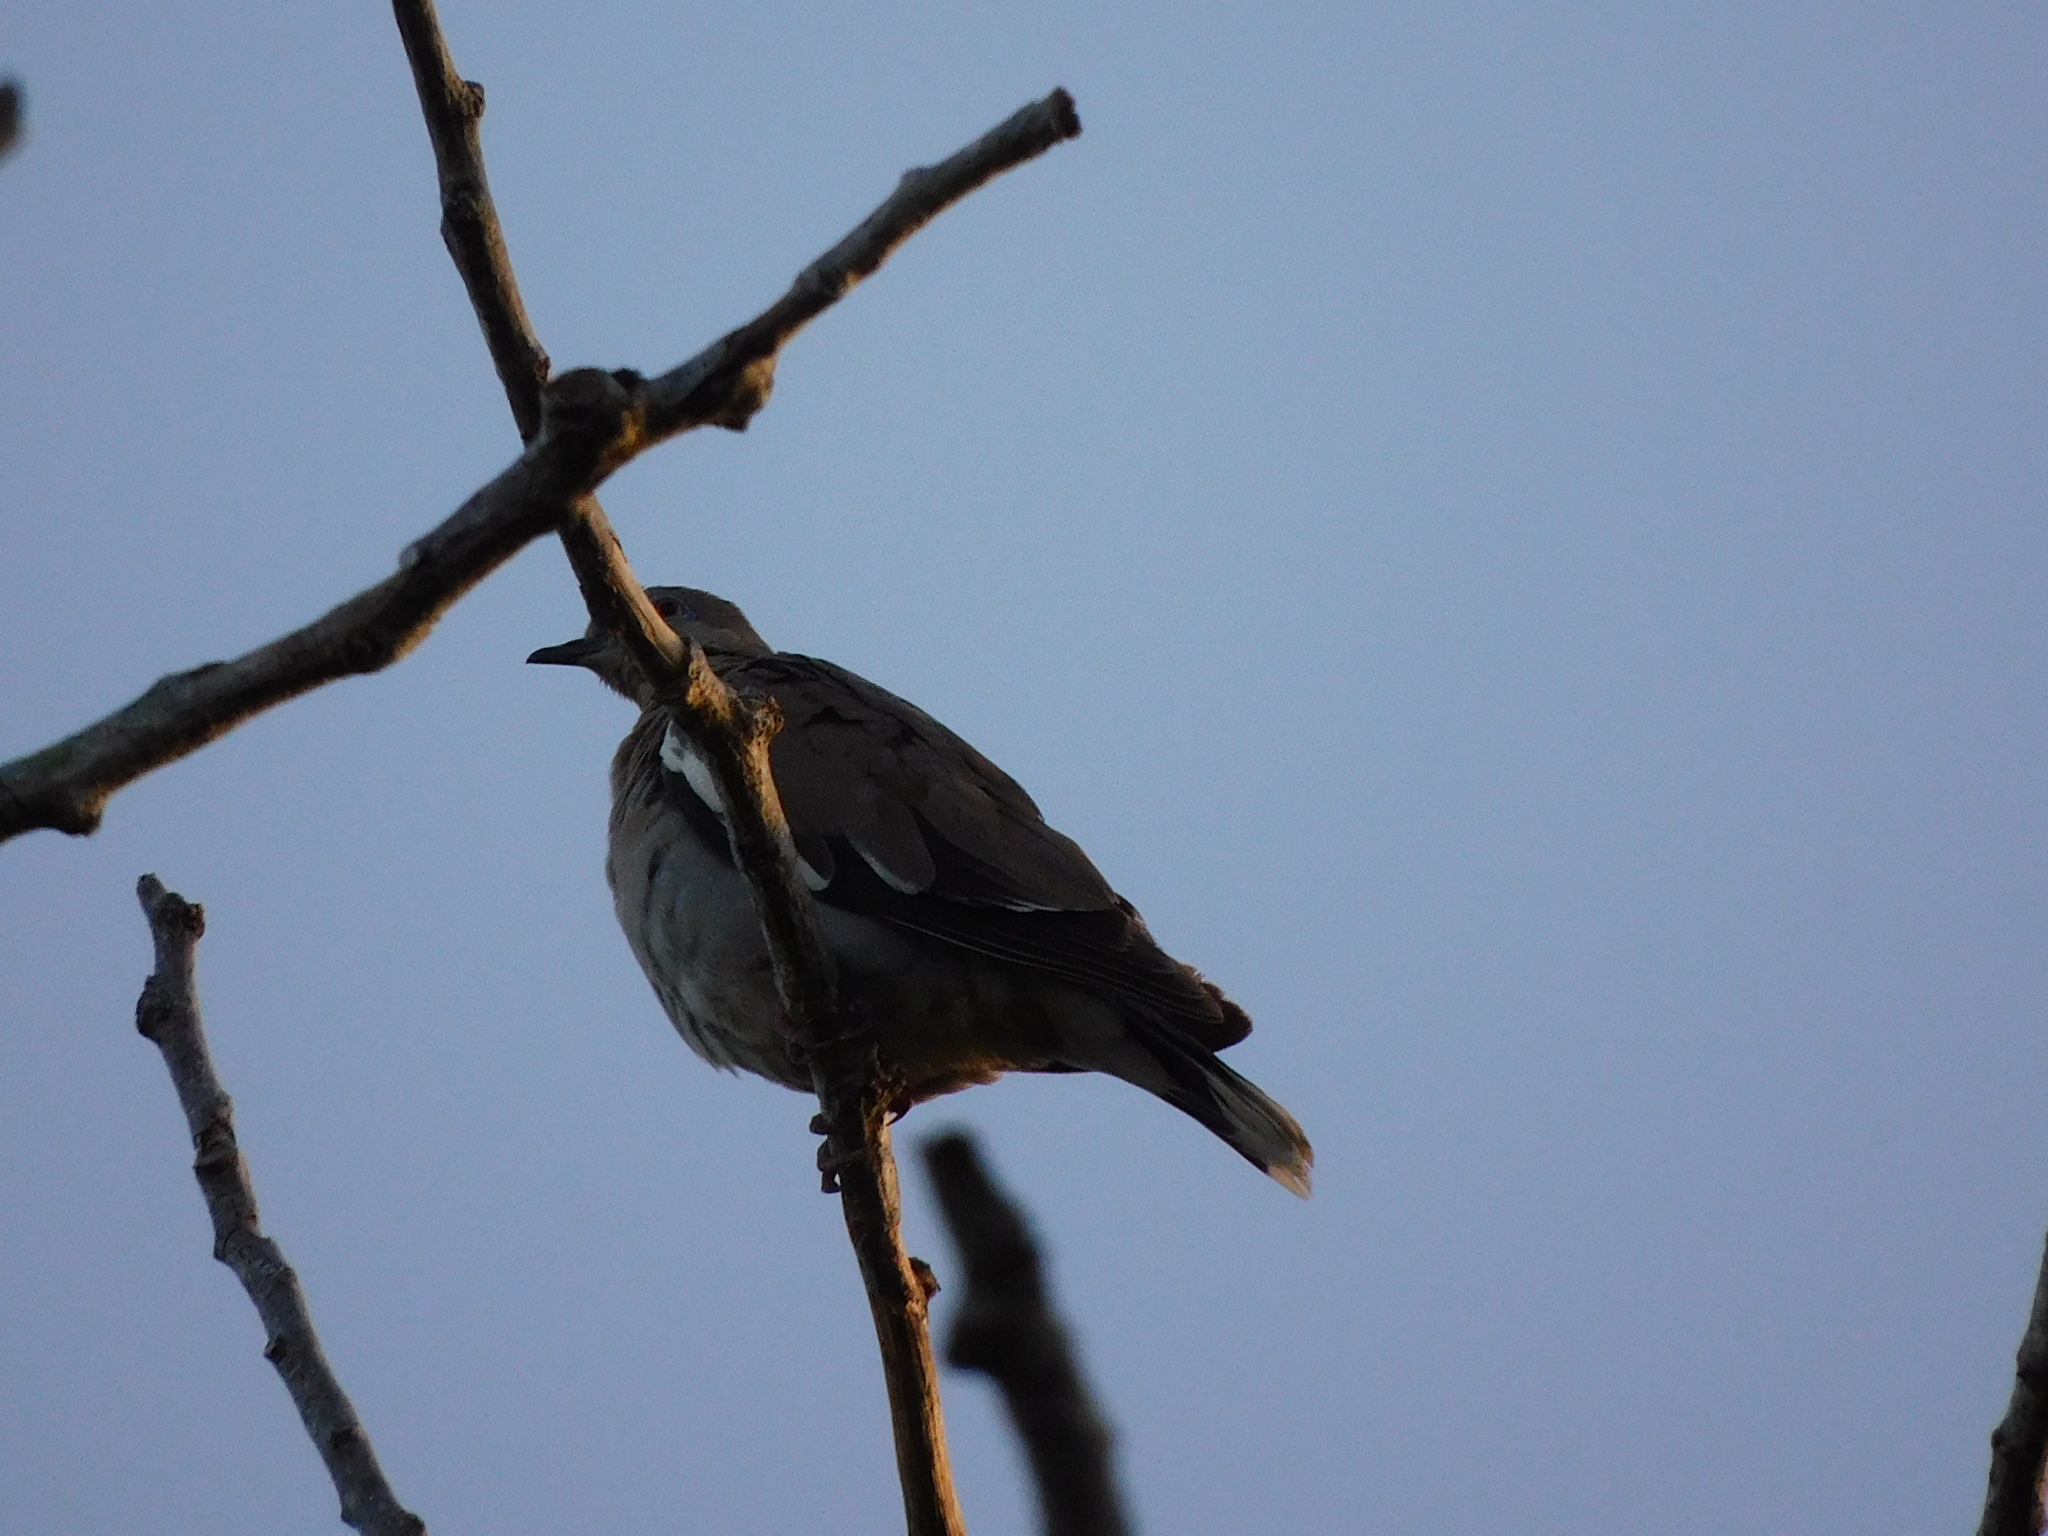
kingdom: Animalia
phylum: Chordata
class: Aves
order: Columbiformes
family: Columbidae
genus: Zenaida
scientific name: Zenaida asiatica
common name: White-winged dove
